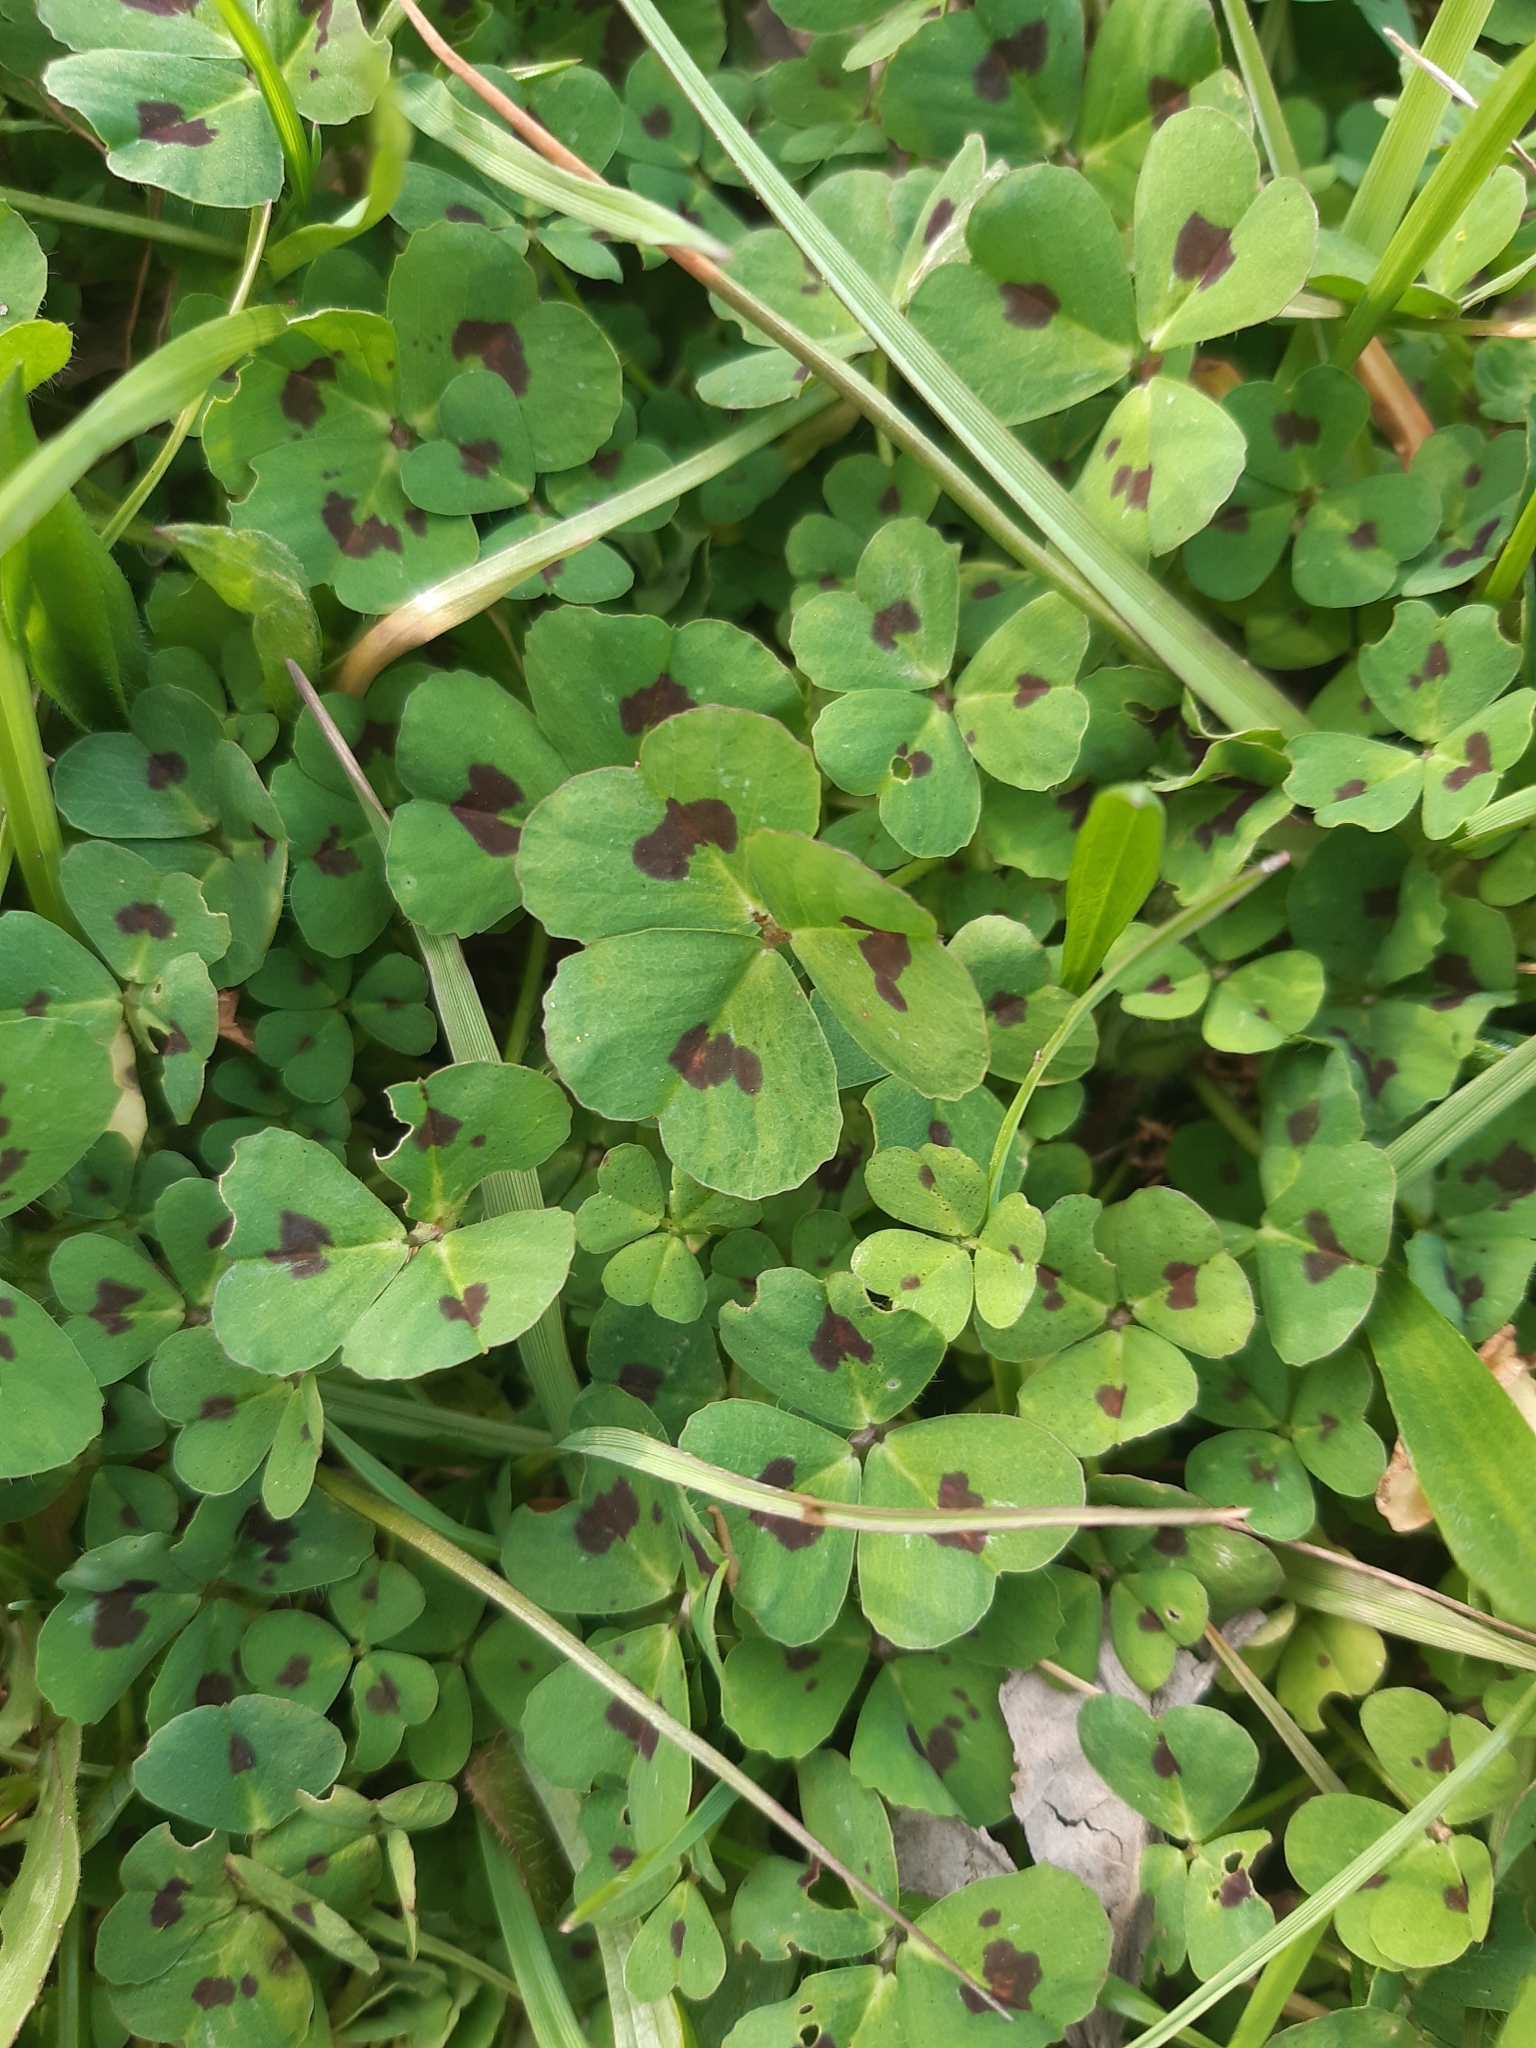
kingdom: Plantae
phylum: Tracheophyta
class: Magnoliopsida
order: Fabales
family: Fabaceae
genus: Medicago
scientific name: Medicago arabica
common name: Spotted medick
